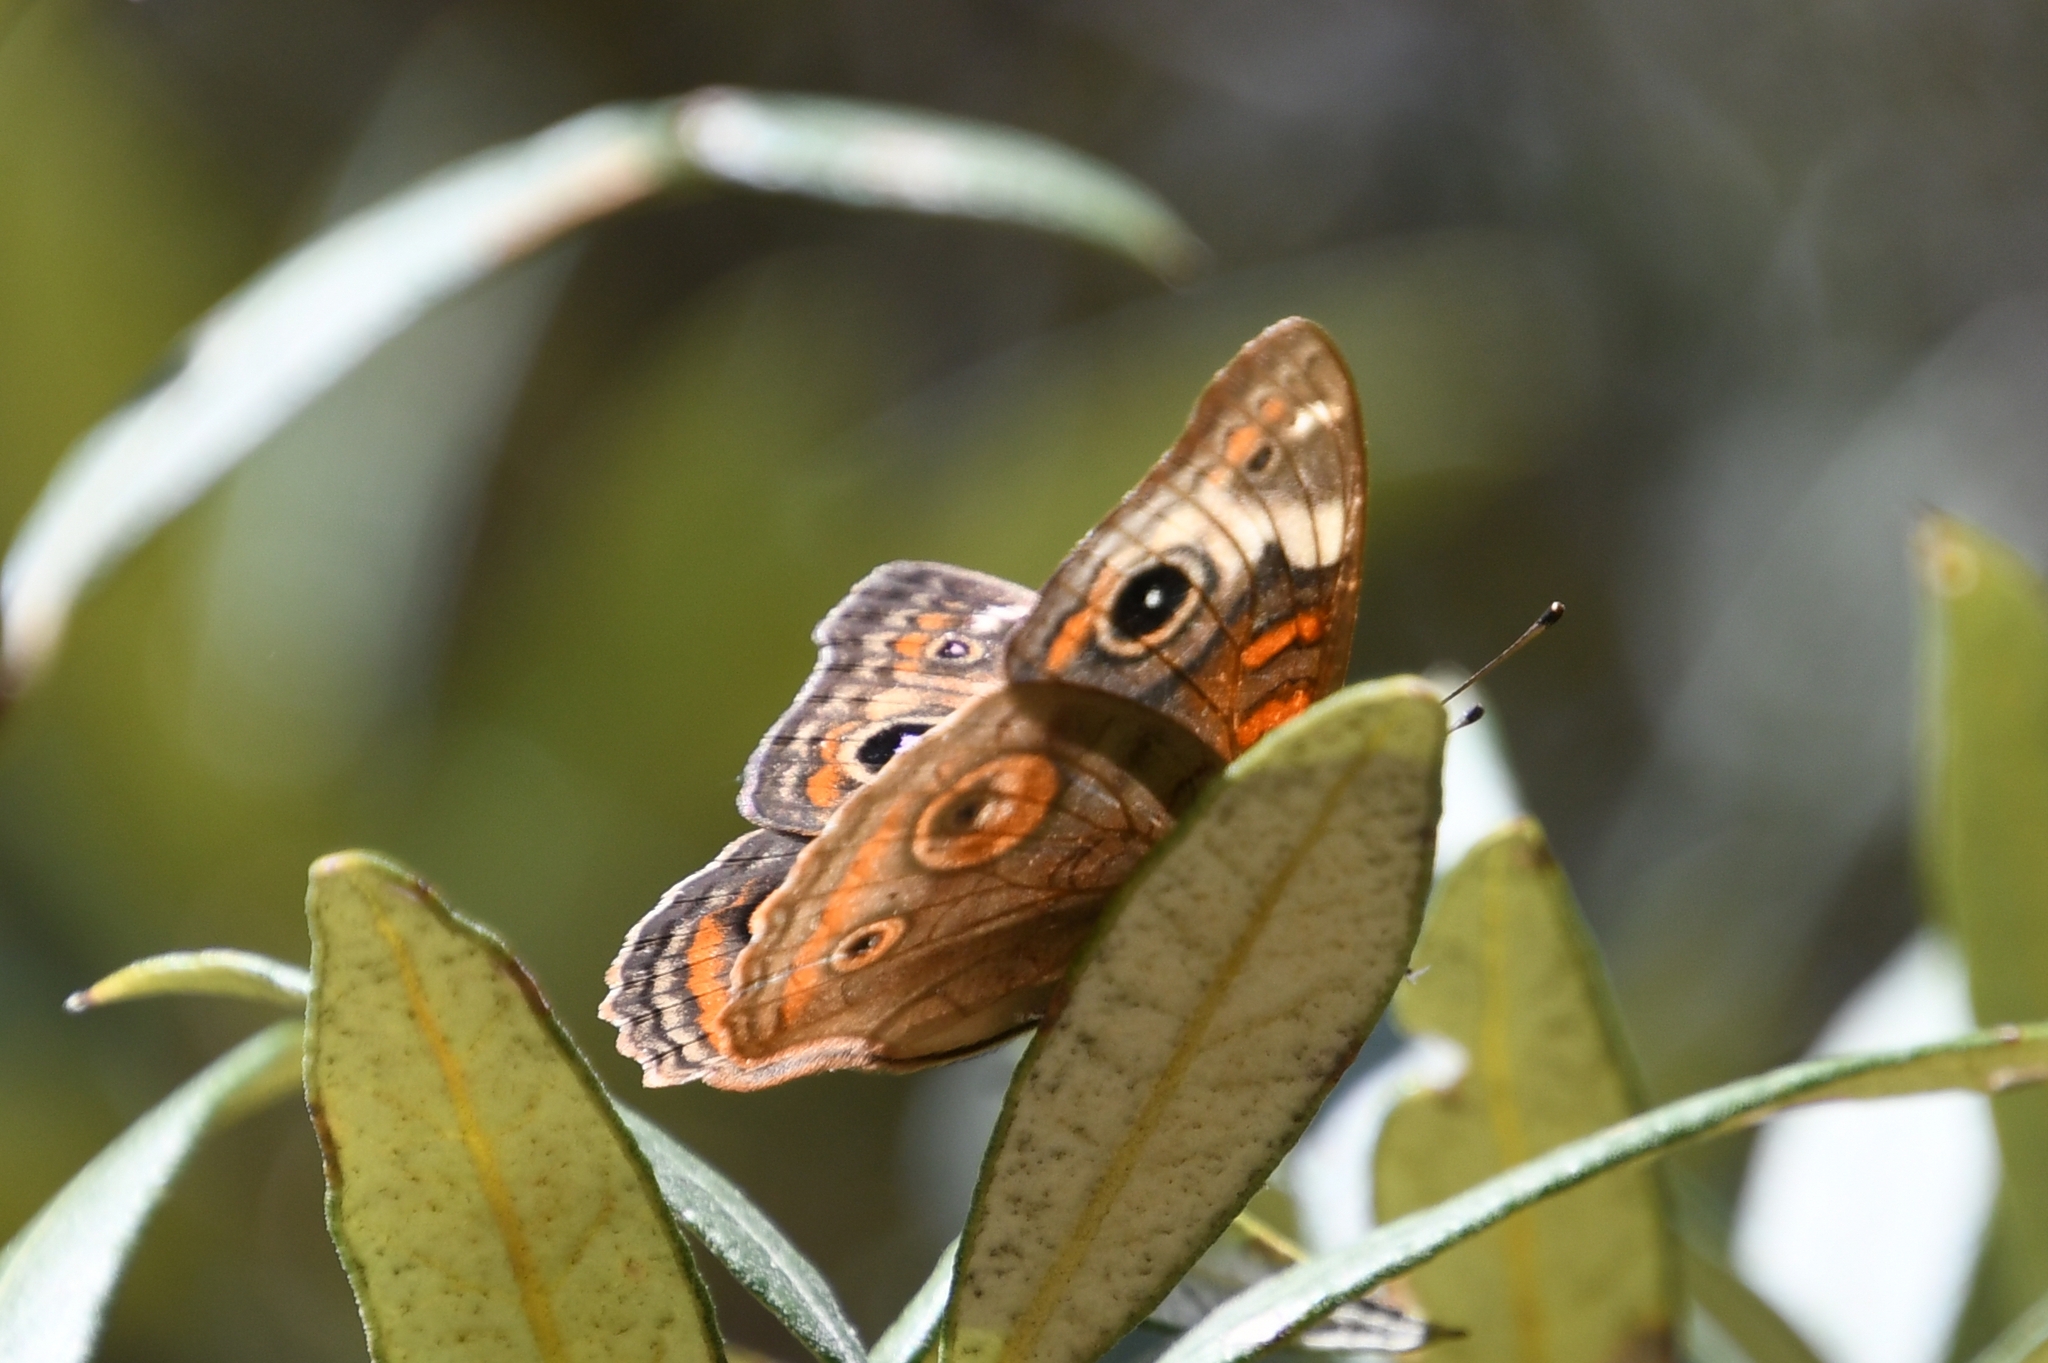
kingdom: Animalia
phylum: Arthropoda
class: Insecta
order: Lepidoptera
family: Nymphalidae
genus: Junonia
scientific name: Junonia grisea
